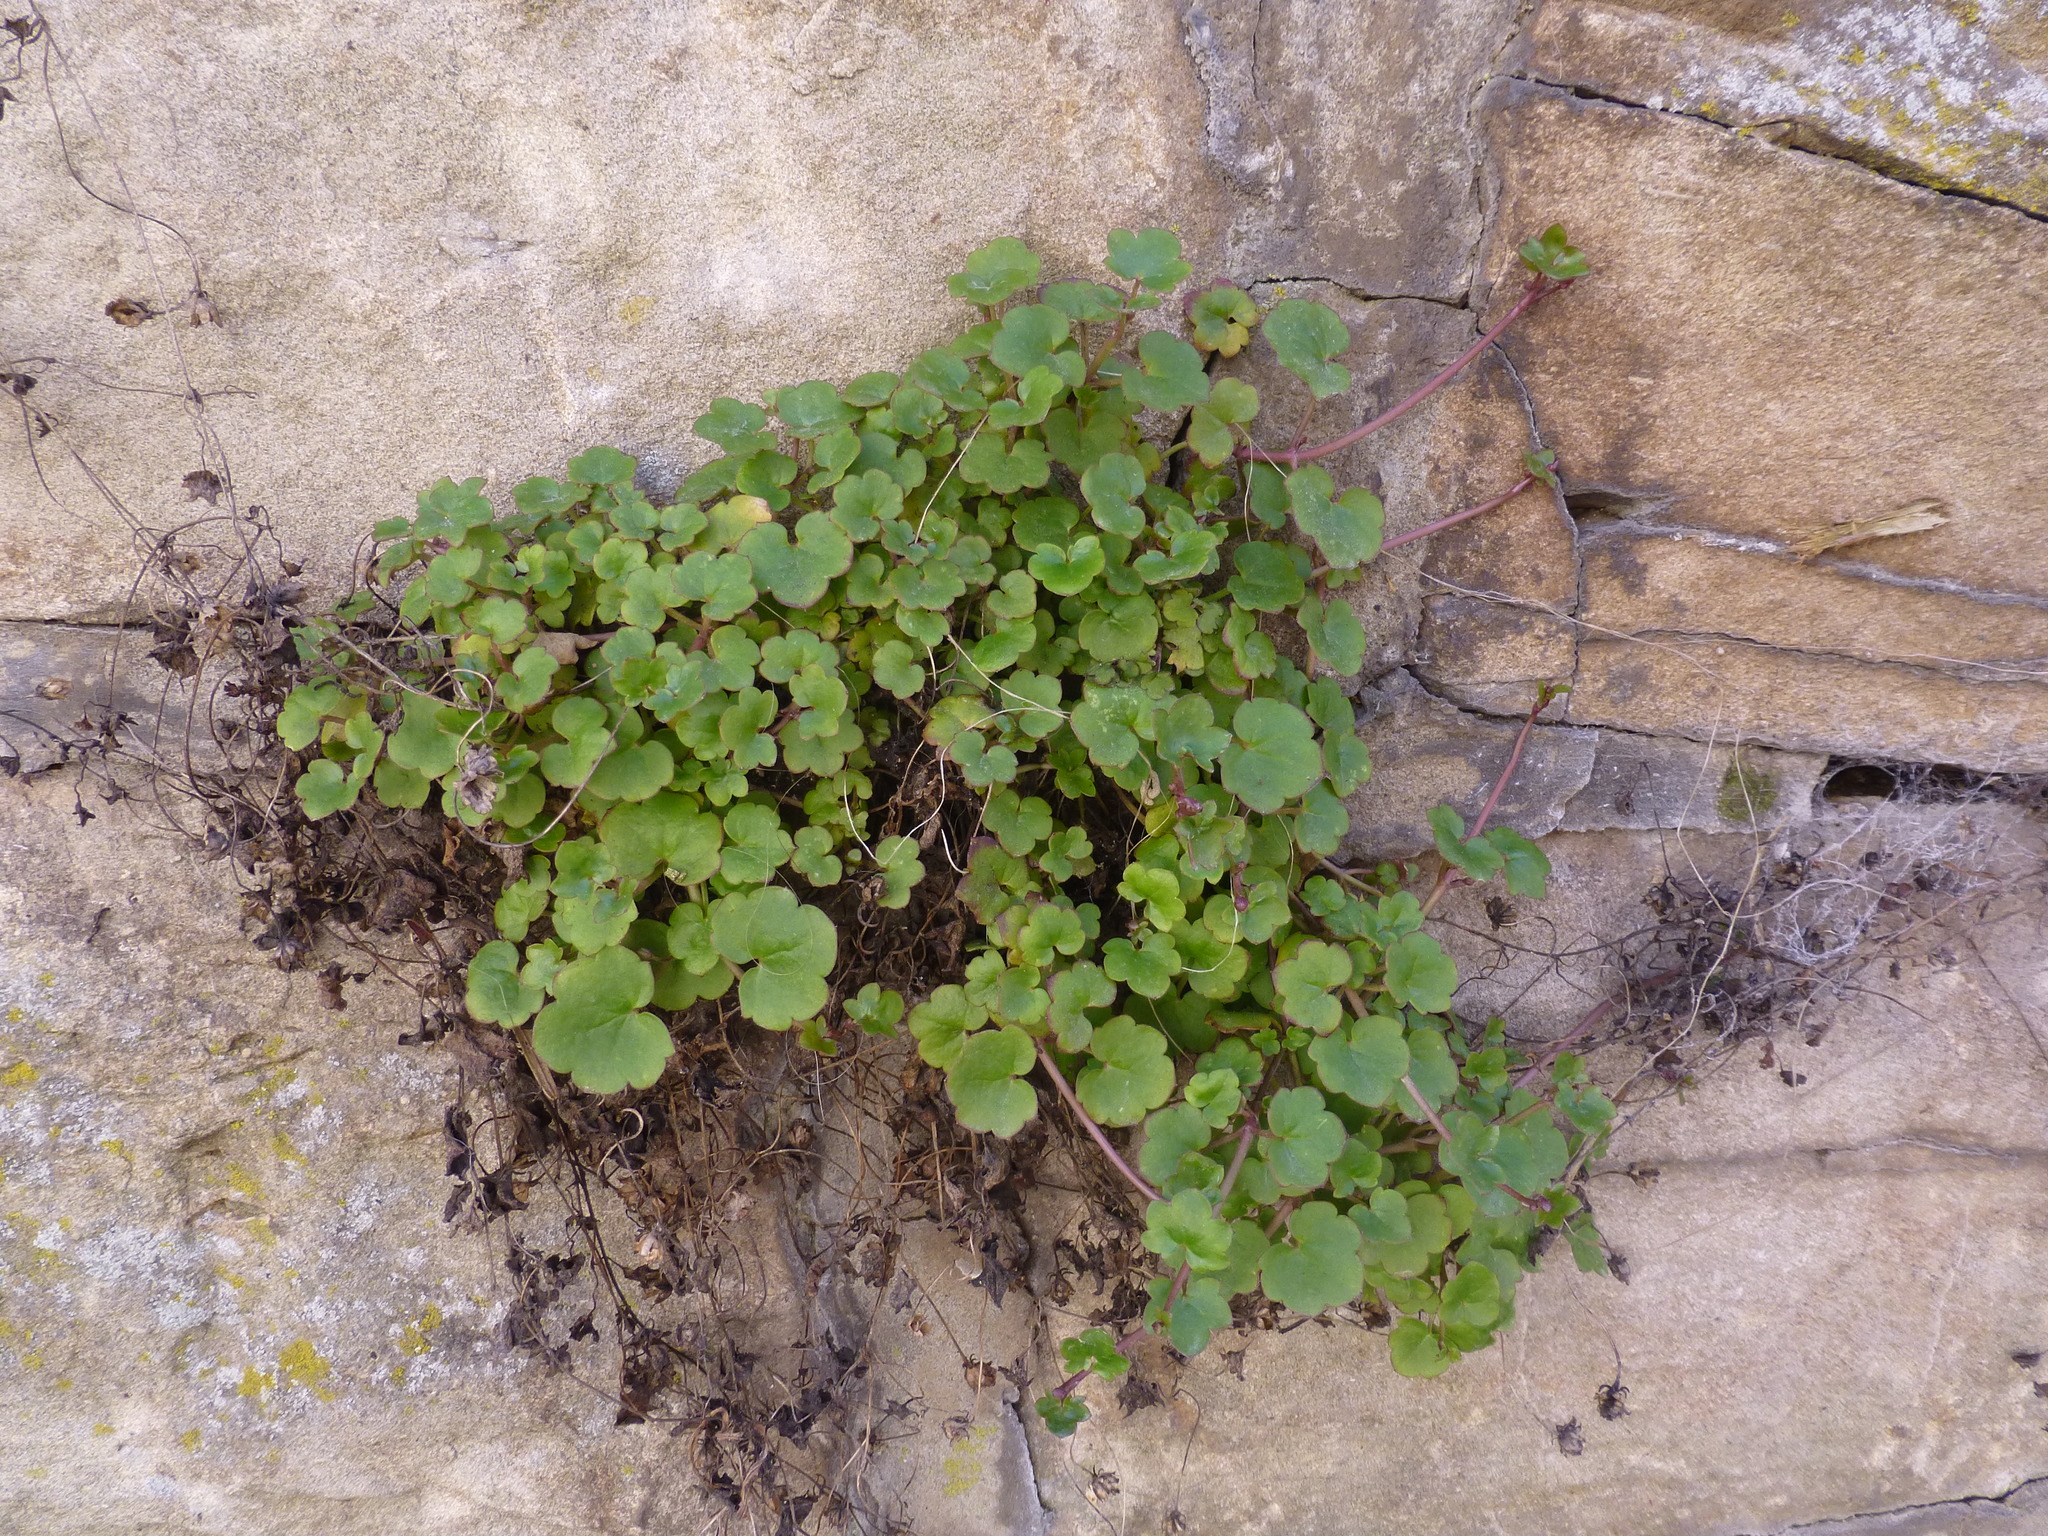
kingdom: Plantae
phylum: Tracheophyta
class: Magnoliopsida
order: Lamiales
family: Plantaginaceae
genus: Cymbalaria
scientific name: Cymbalaria muralis
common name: Ivy-leaved toadflax
